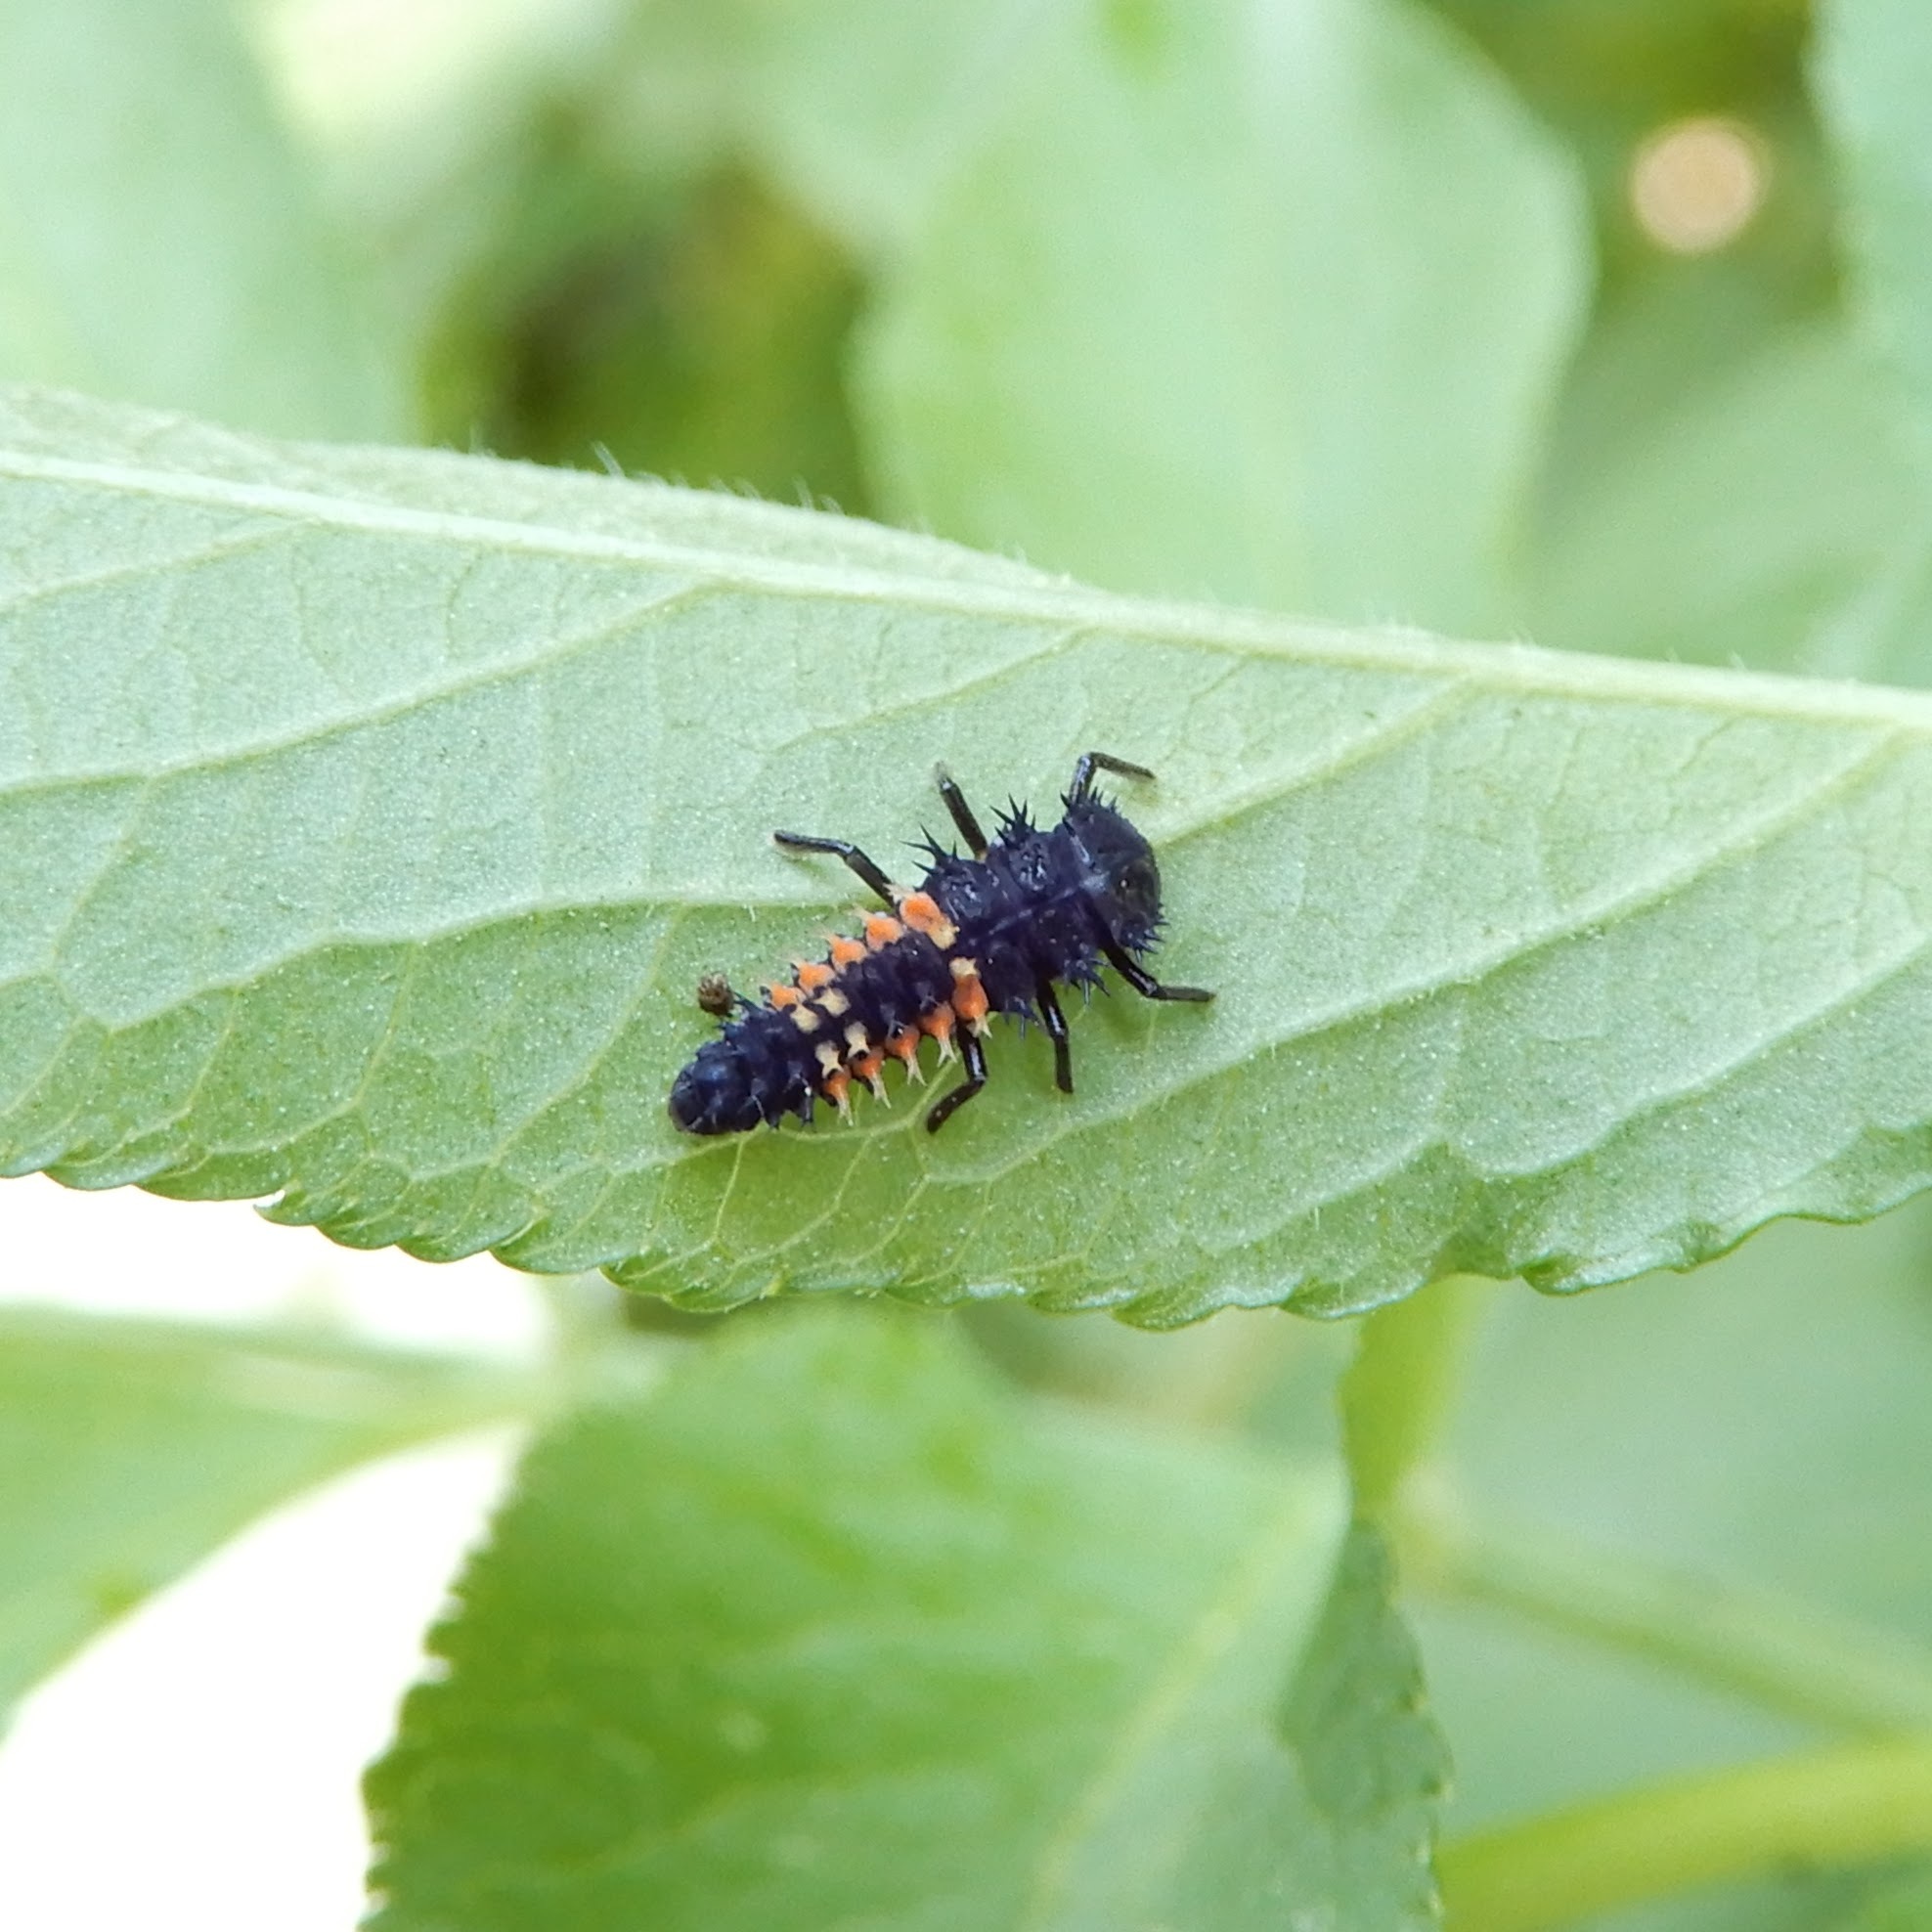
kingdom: Animalia
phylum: Arthropoda
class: Insecta
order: Coleoptera
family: Coccinellidae
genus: Harmonia
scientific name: Harmonia axyridis
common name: Harlequin ladybird
